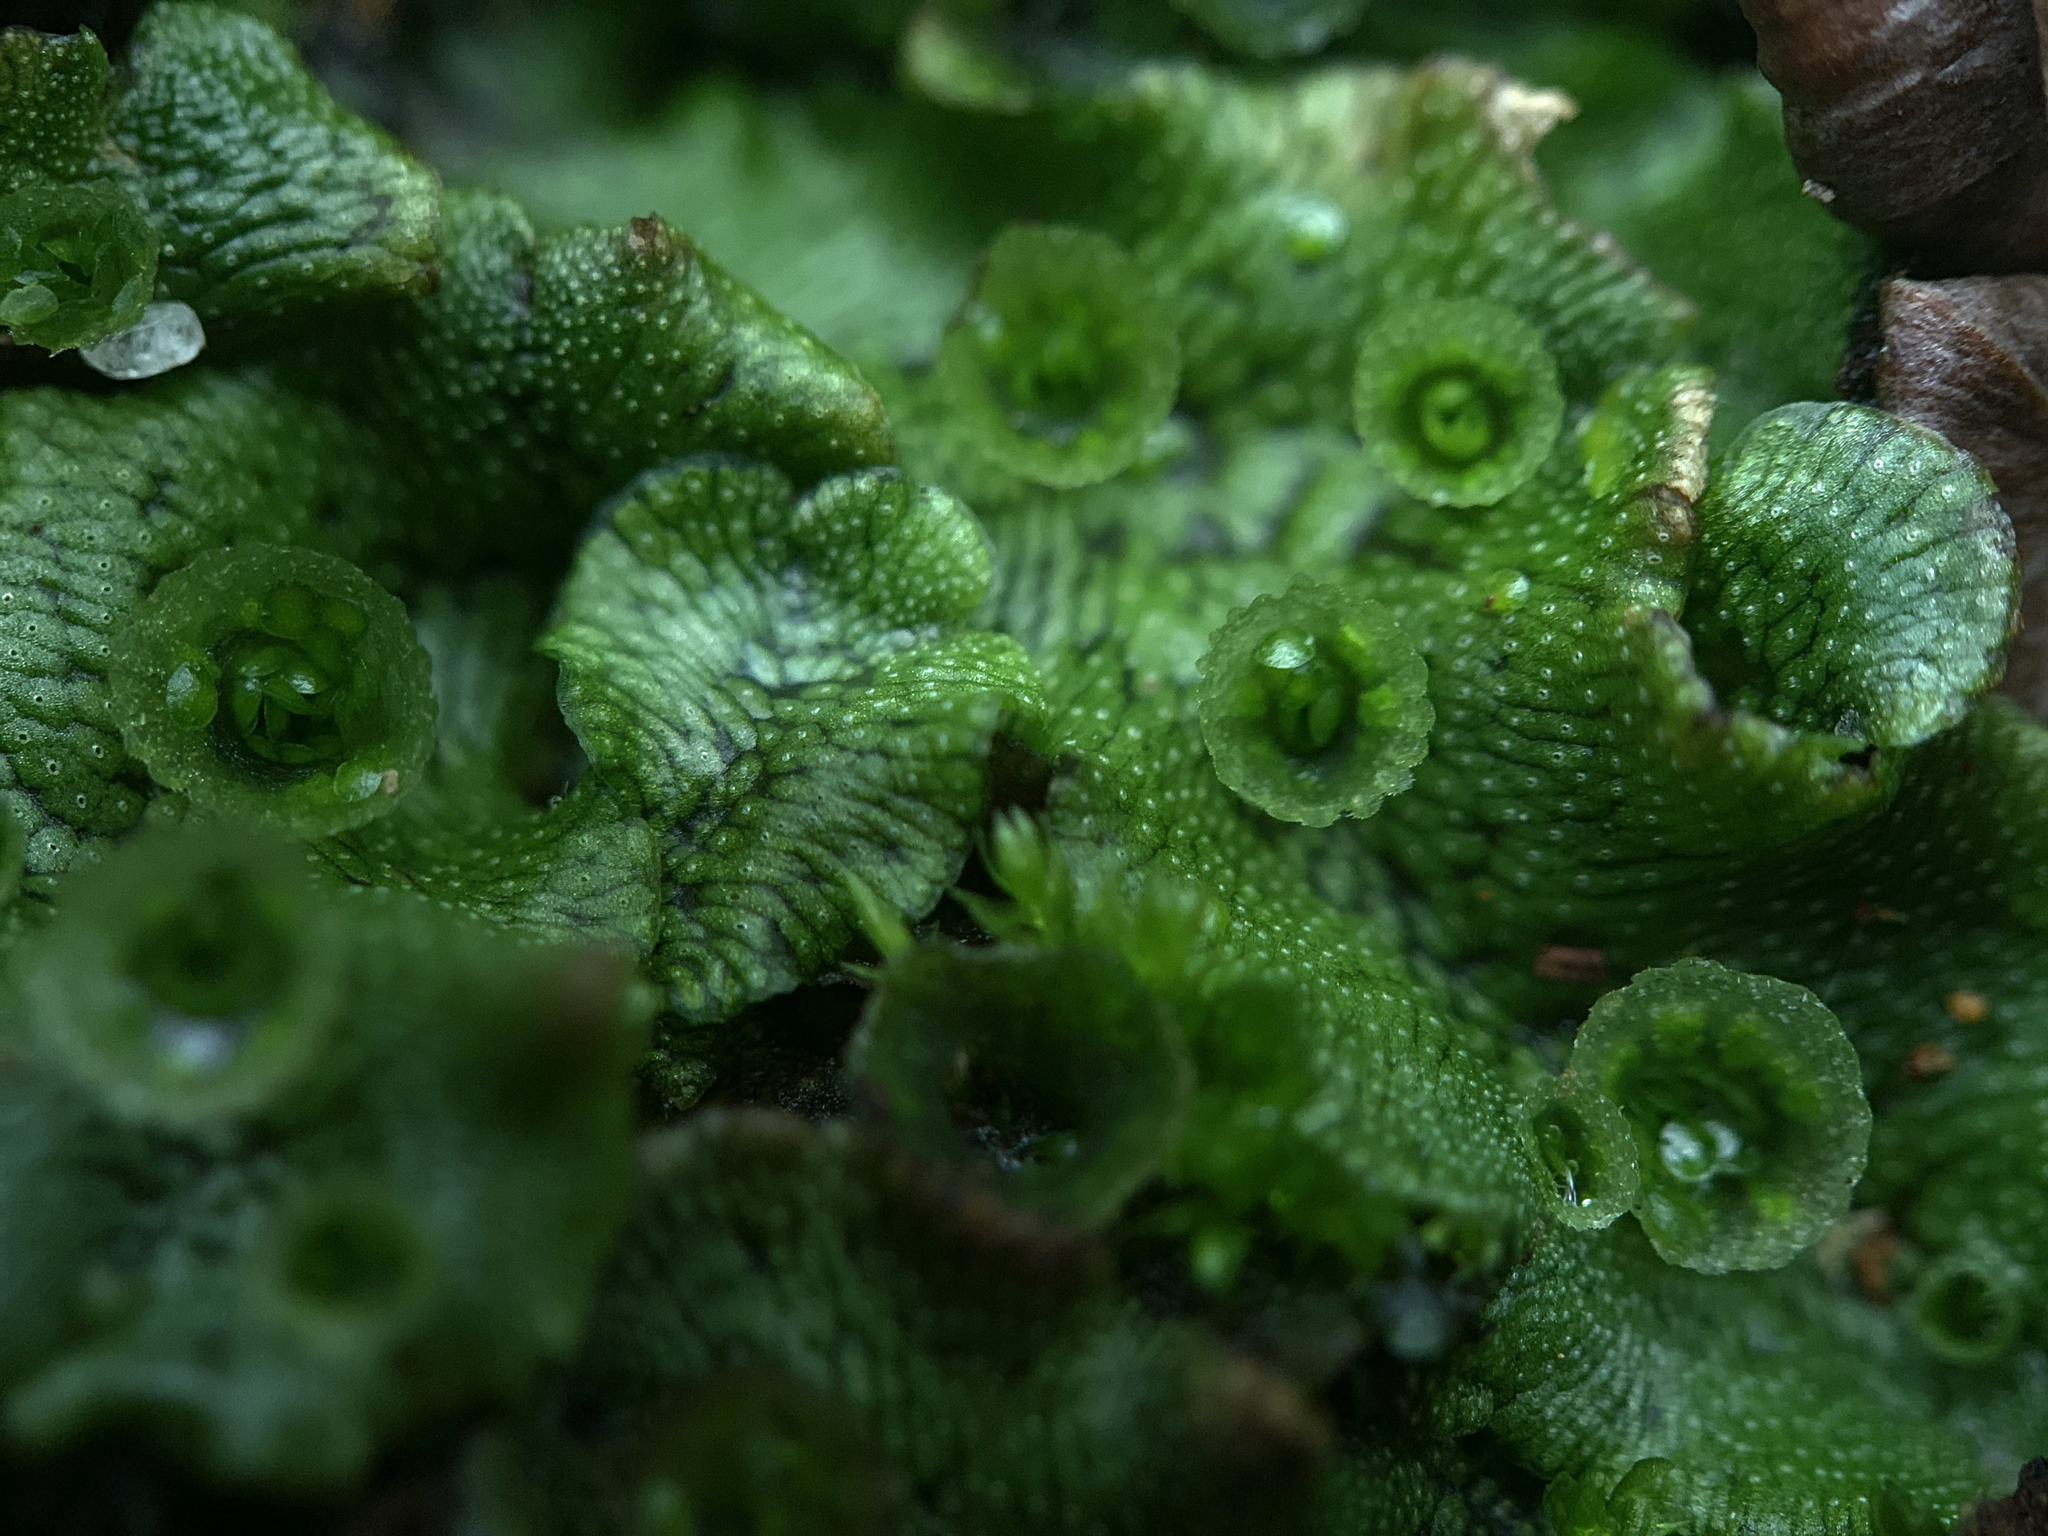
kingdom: Plantae
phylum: Marchantiophyta
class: Marchantiopsida
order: Marchantiales
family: Marchantiaceae
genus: Marchantia
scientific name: Marchantia polymorpha
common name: Common liverwort
